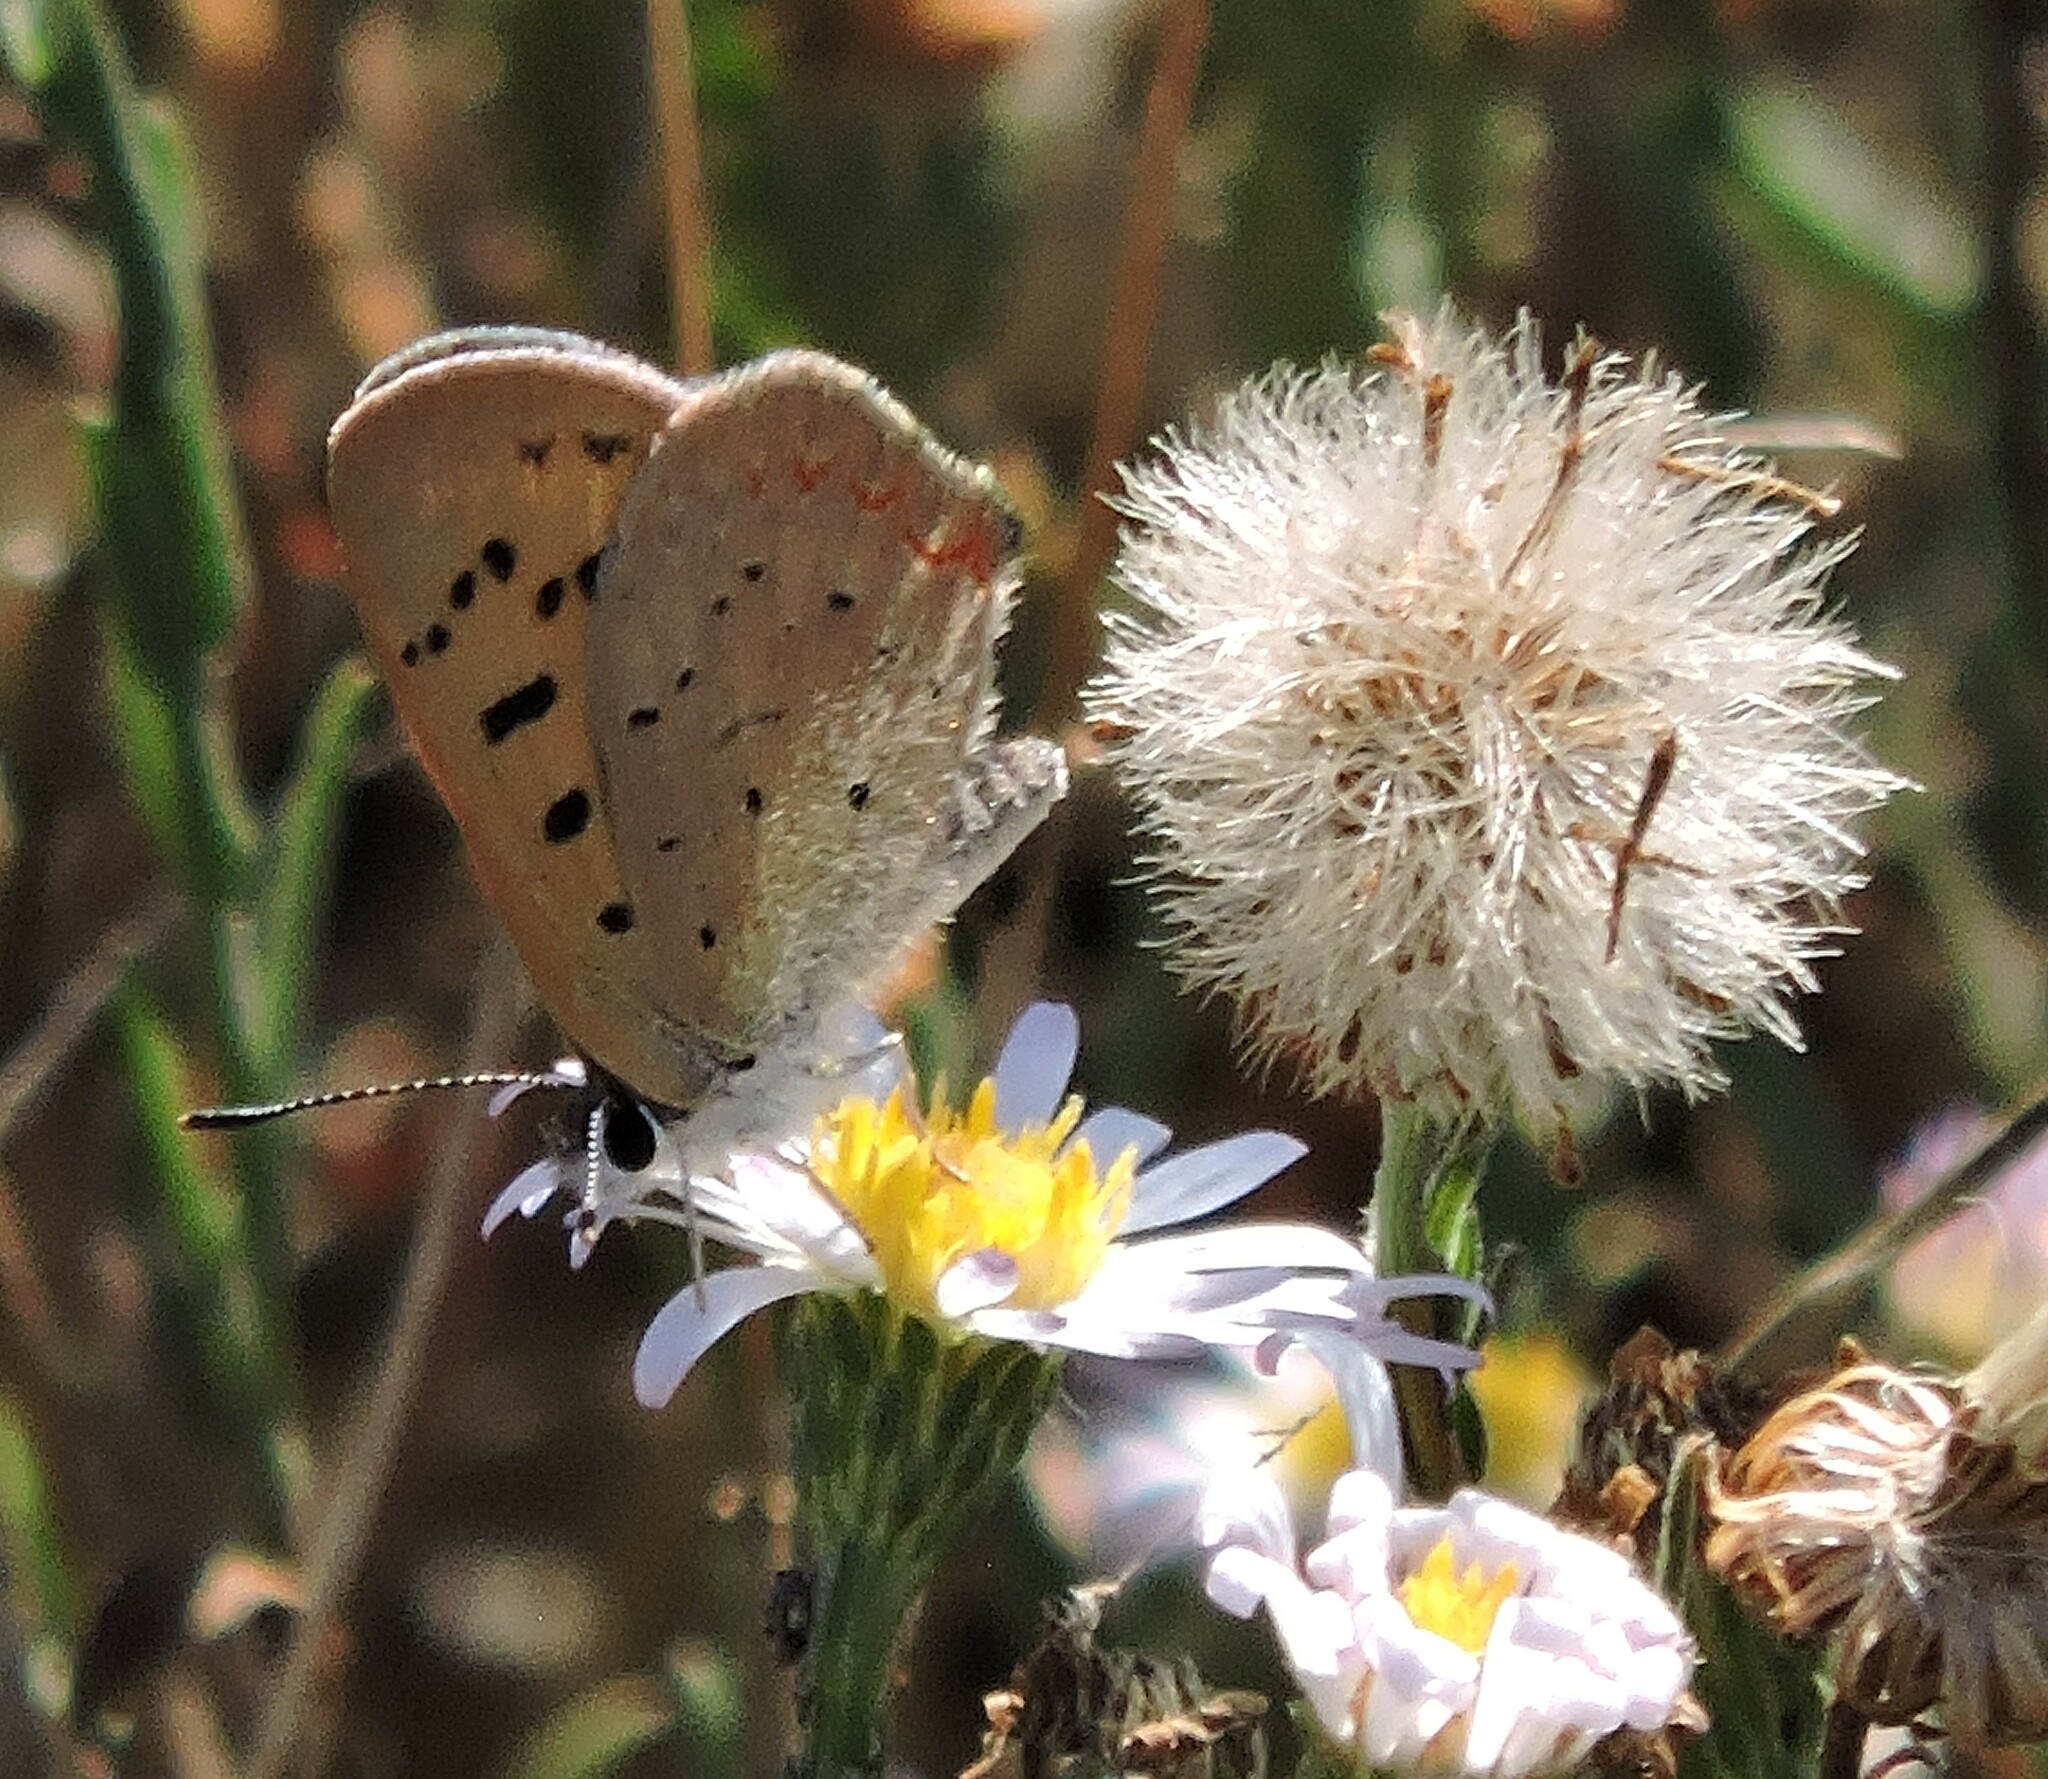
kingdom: Animalia
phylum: Arthropoda
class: Insecta
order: Lepidoptera
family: Lycaenidae
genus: Tharsalea
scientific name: Tharsalea helloides
